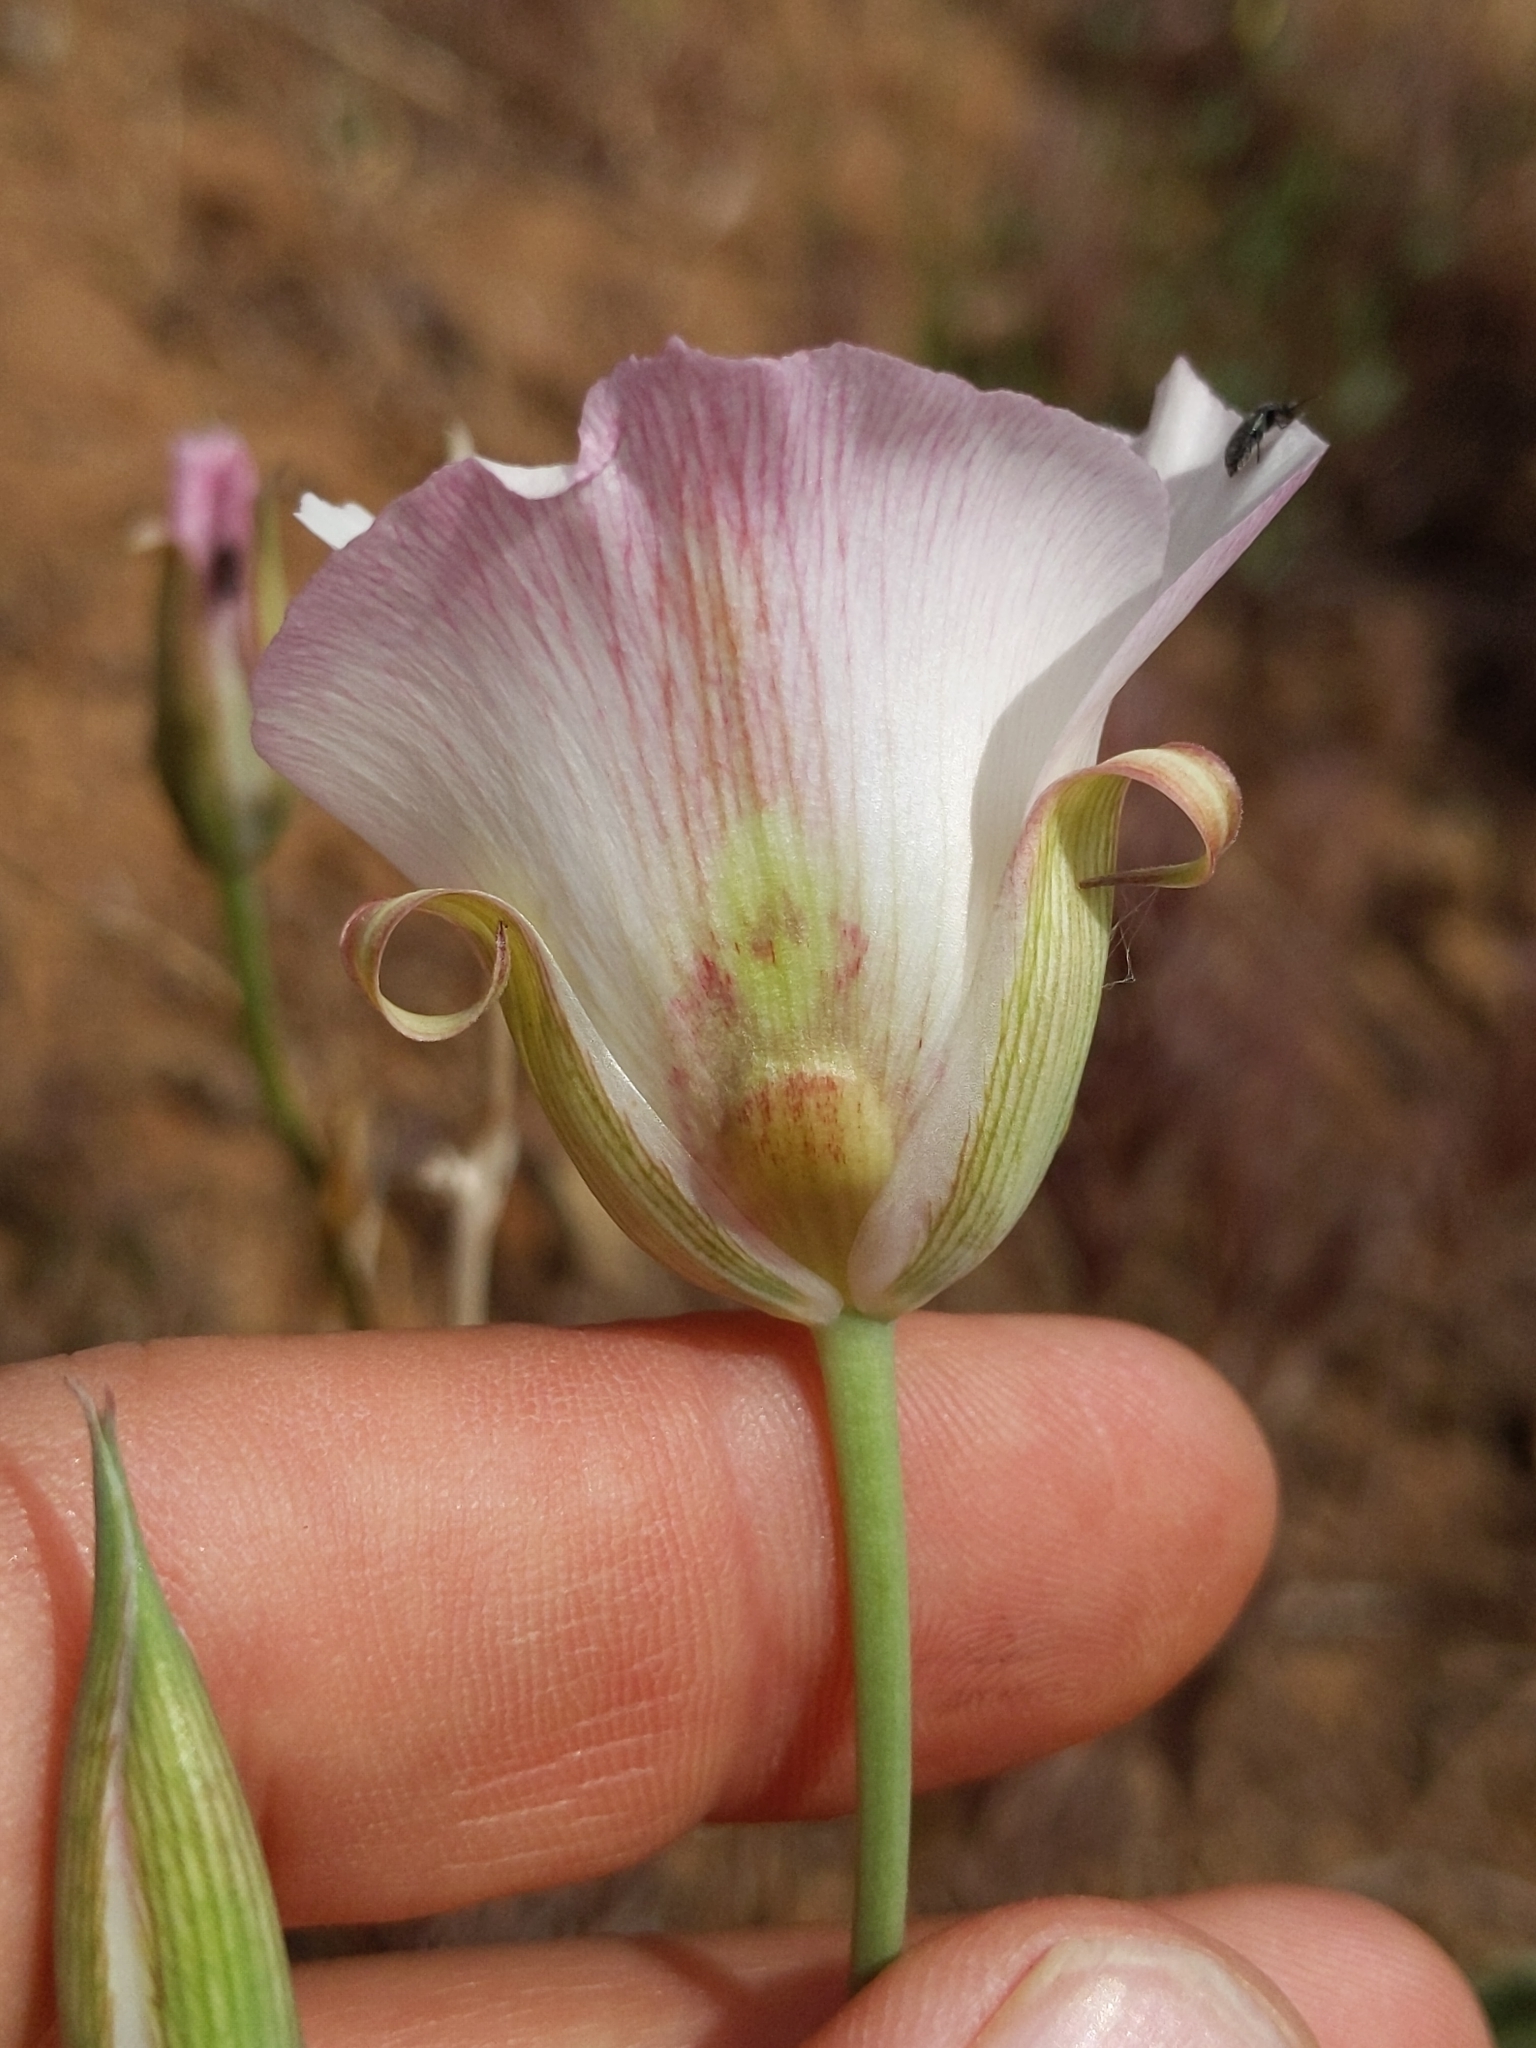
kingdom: Plantae
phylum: Tracheophyta
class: Liliopsida
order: Liliales
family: Liliaceae
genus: Calochortus
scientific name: Calochortus venustus
